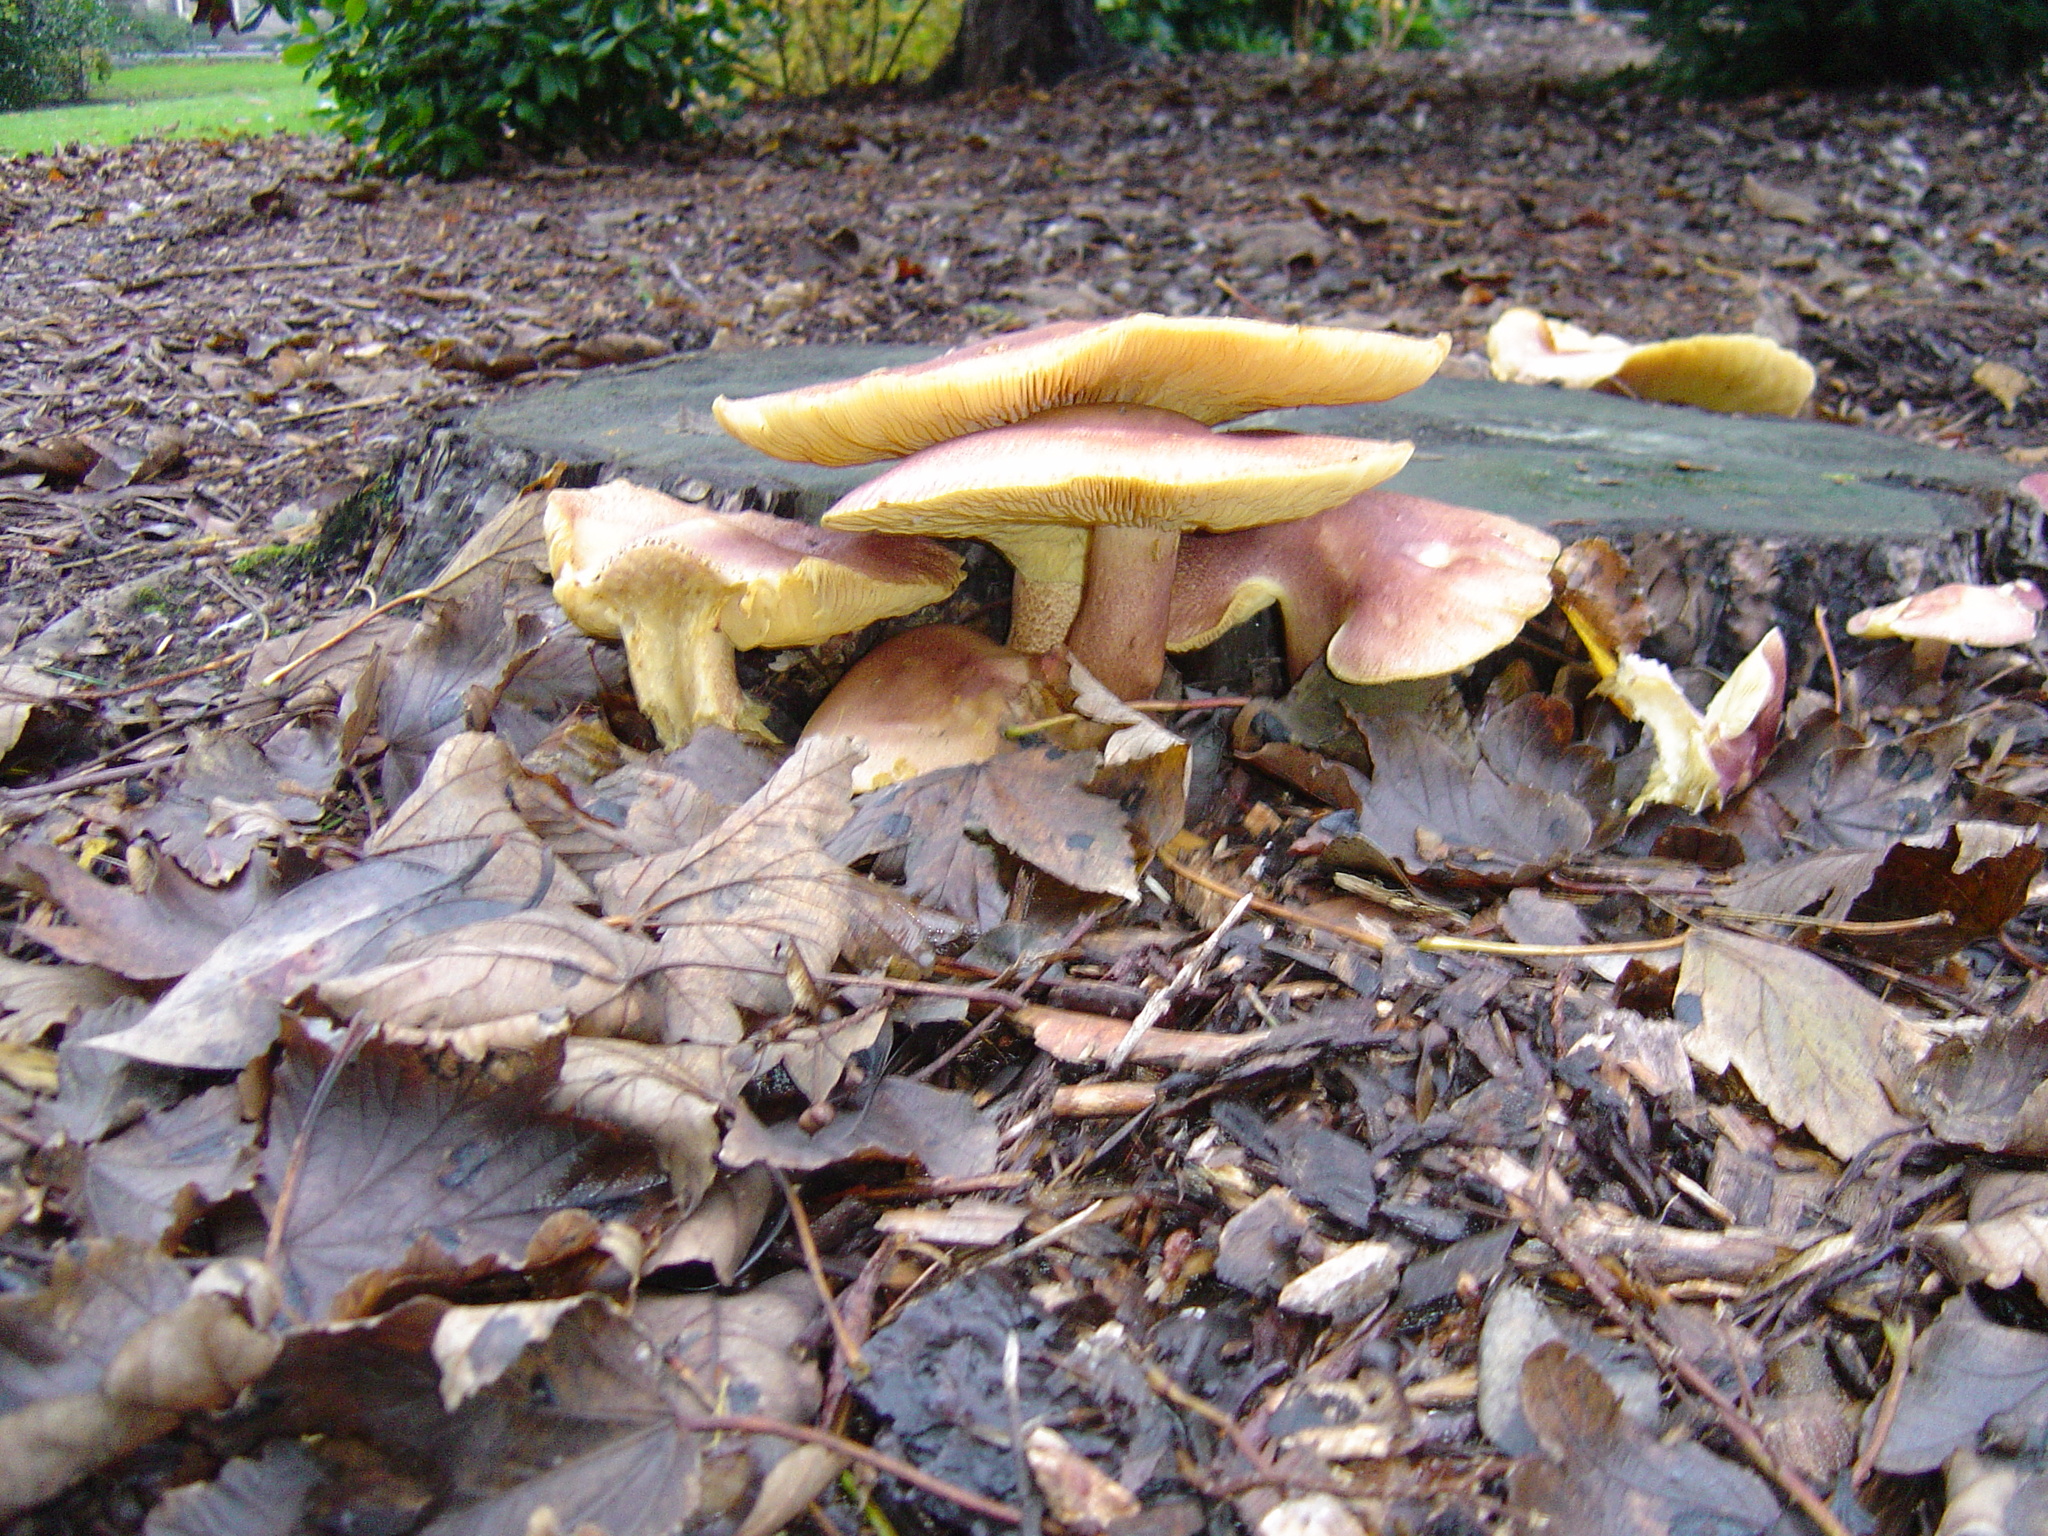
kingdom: Fungi
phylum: Basidiomycota
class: Agaricomycetes
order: Agaricales
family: Tricholomataceae
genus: Tricholomopsis
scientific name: Tricholomopsis rutilans
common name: Plums and custard
